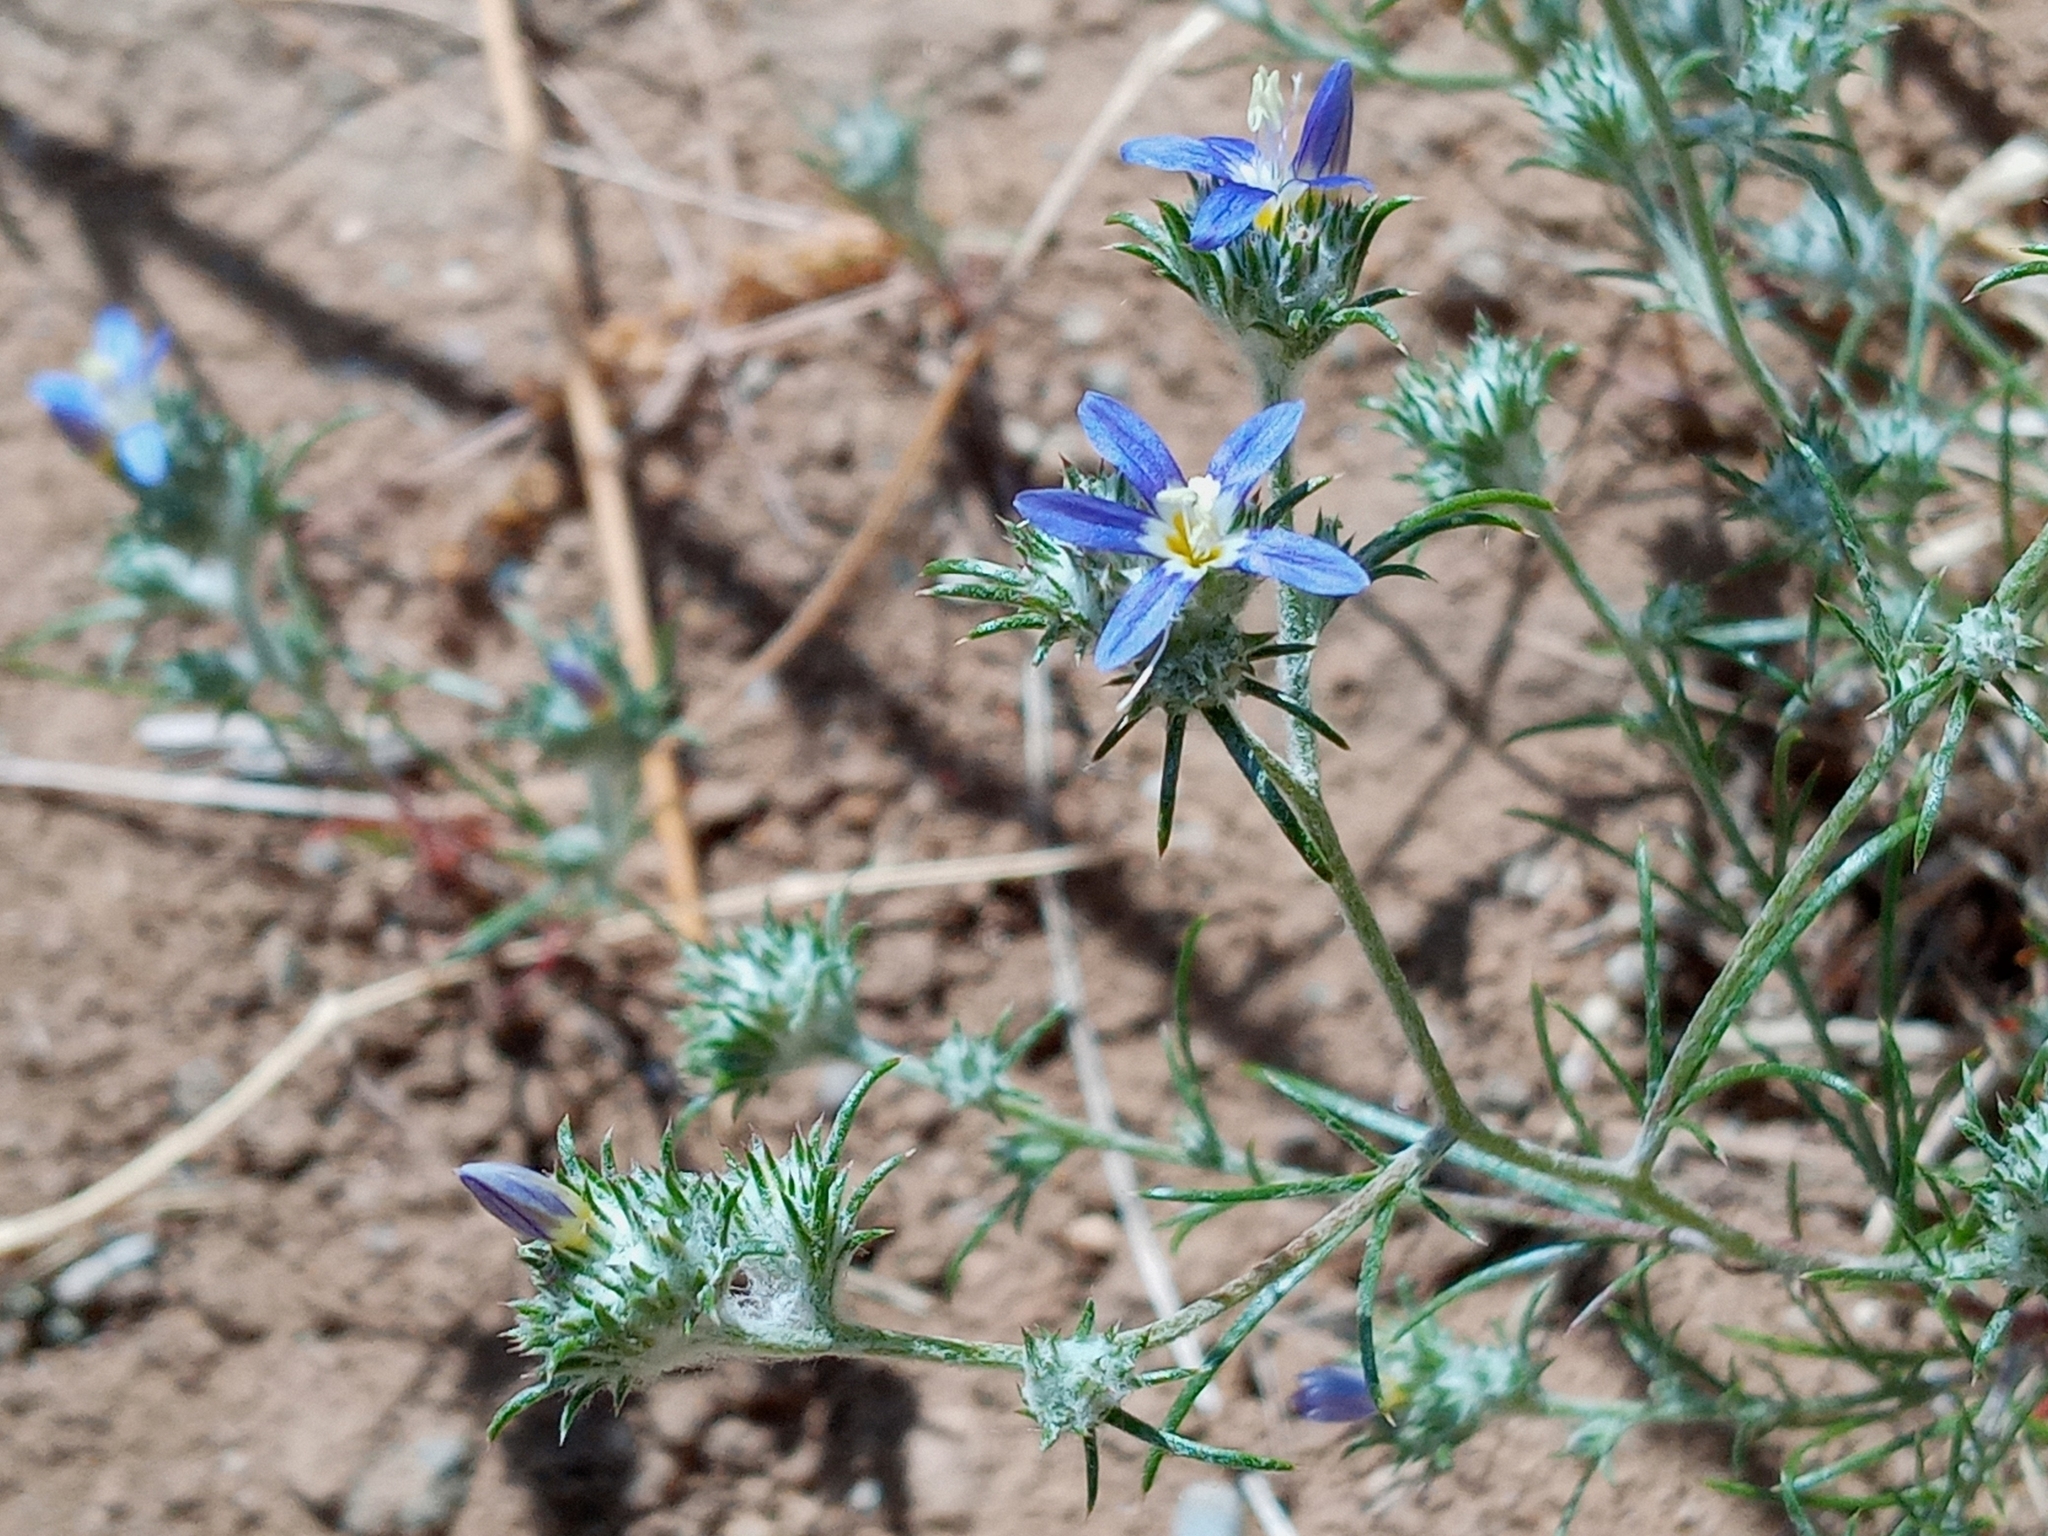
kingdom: Plantae
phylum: Tracheophyta
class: Magnoliopsida
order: Ericales
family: Polemoniaceae
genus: Eriastrum
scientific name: Eriastrum sapphirinum
